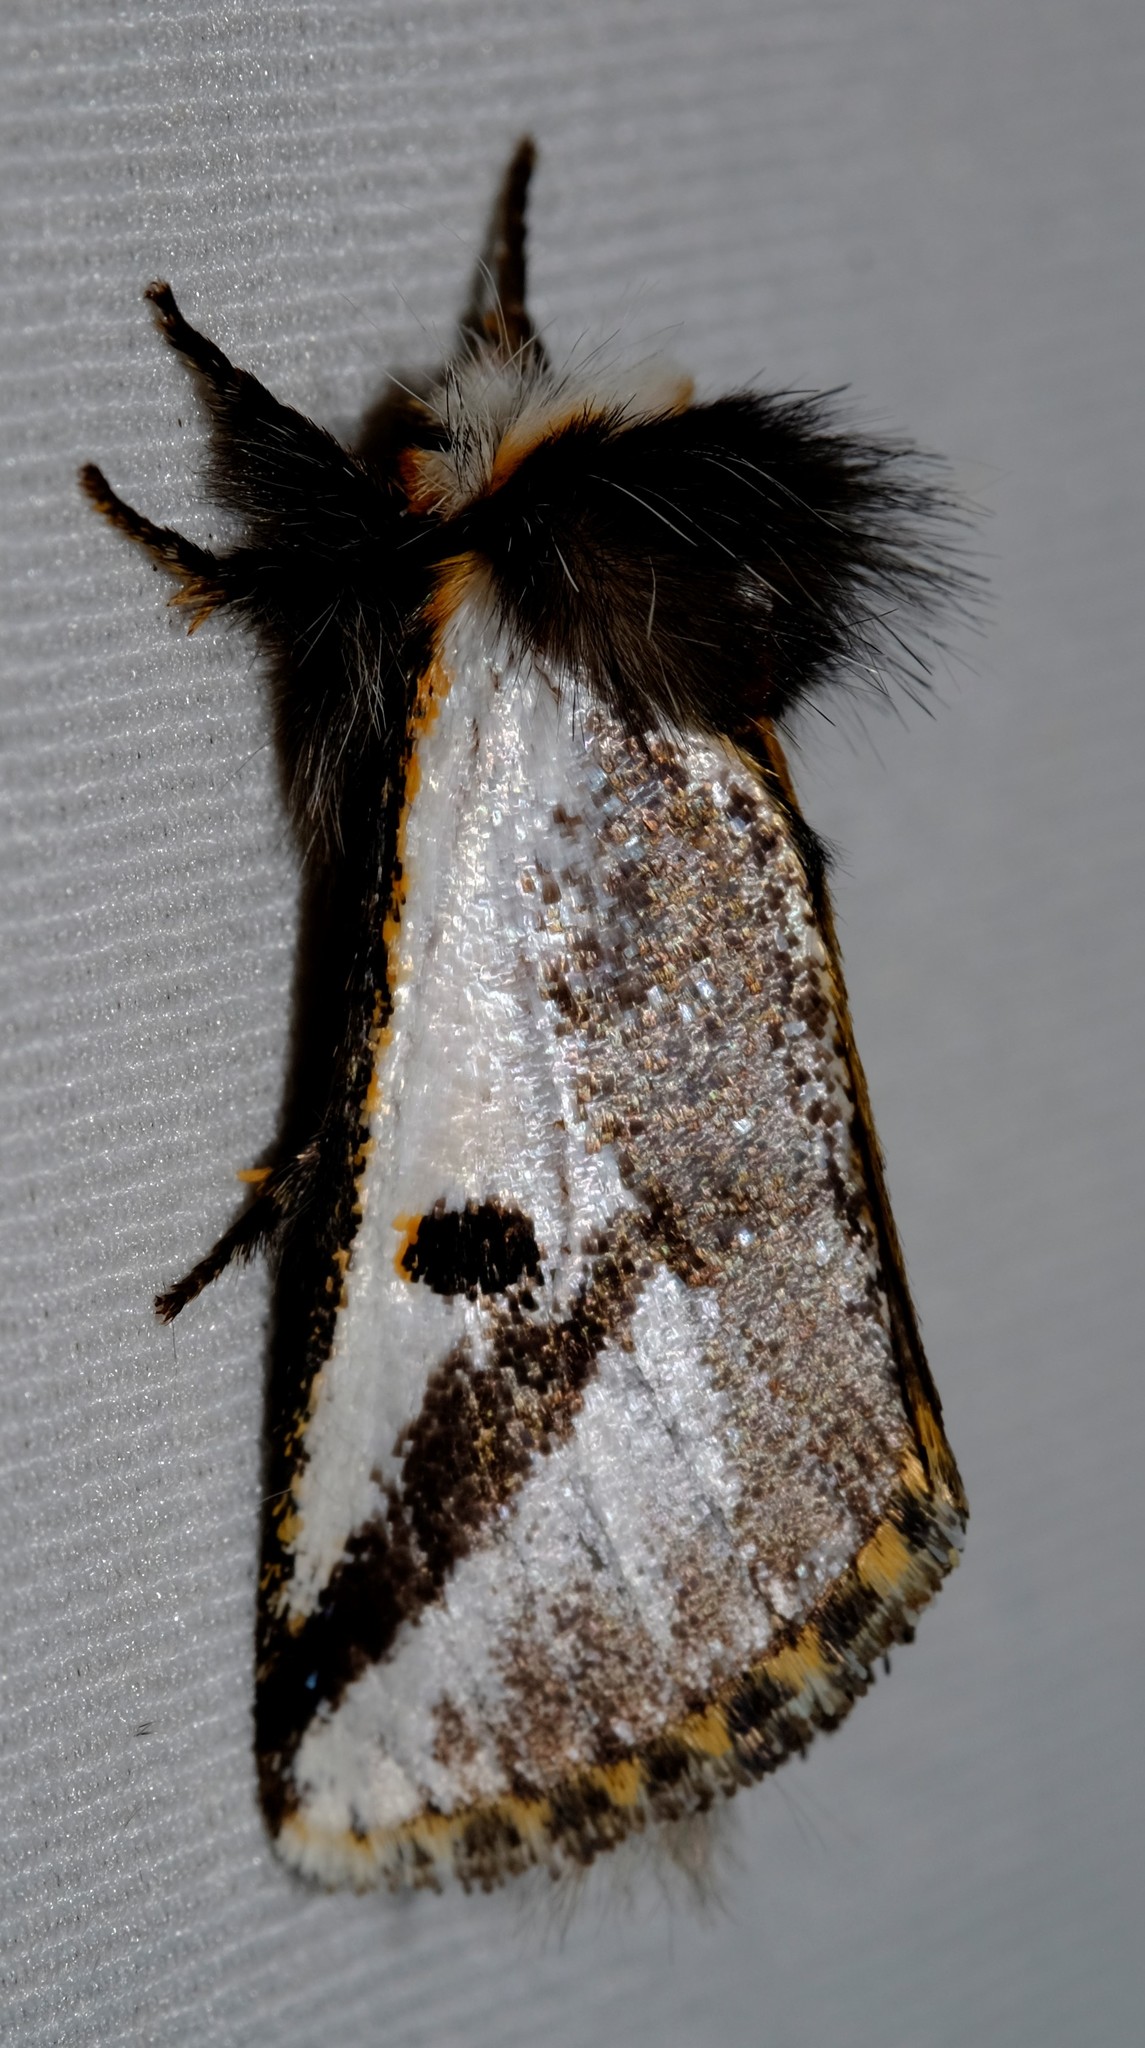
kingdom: Animalia
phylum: Arthropoda
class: Insecta
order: Lepidoptera
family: Notodontidae
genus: Epicoma
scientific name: Epicoma melanospila
